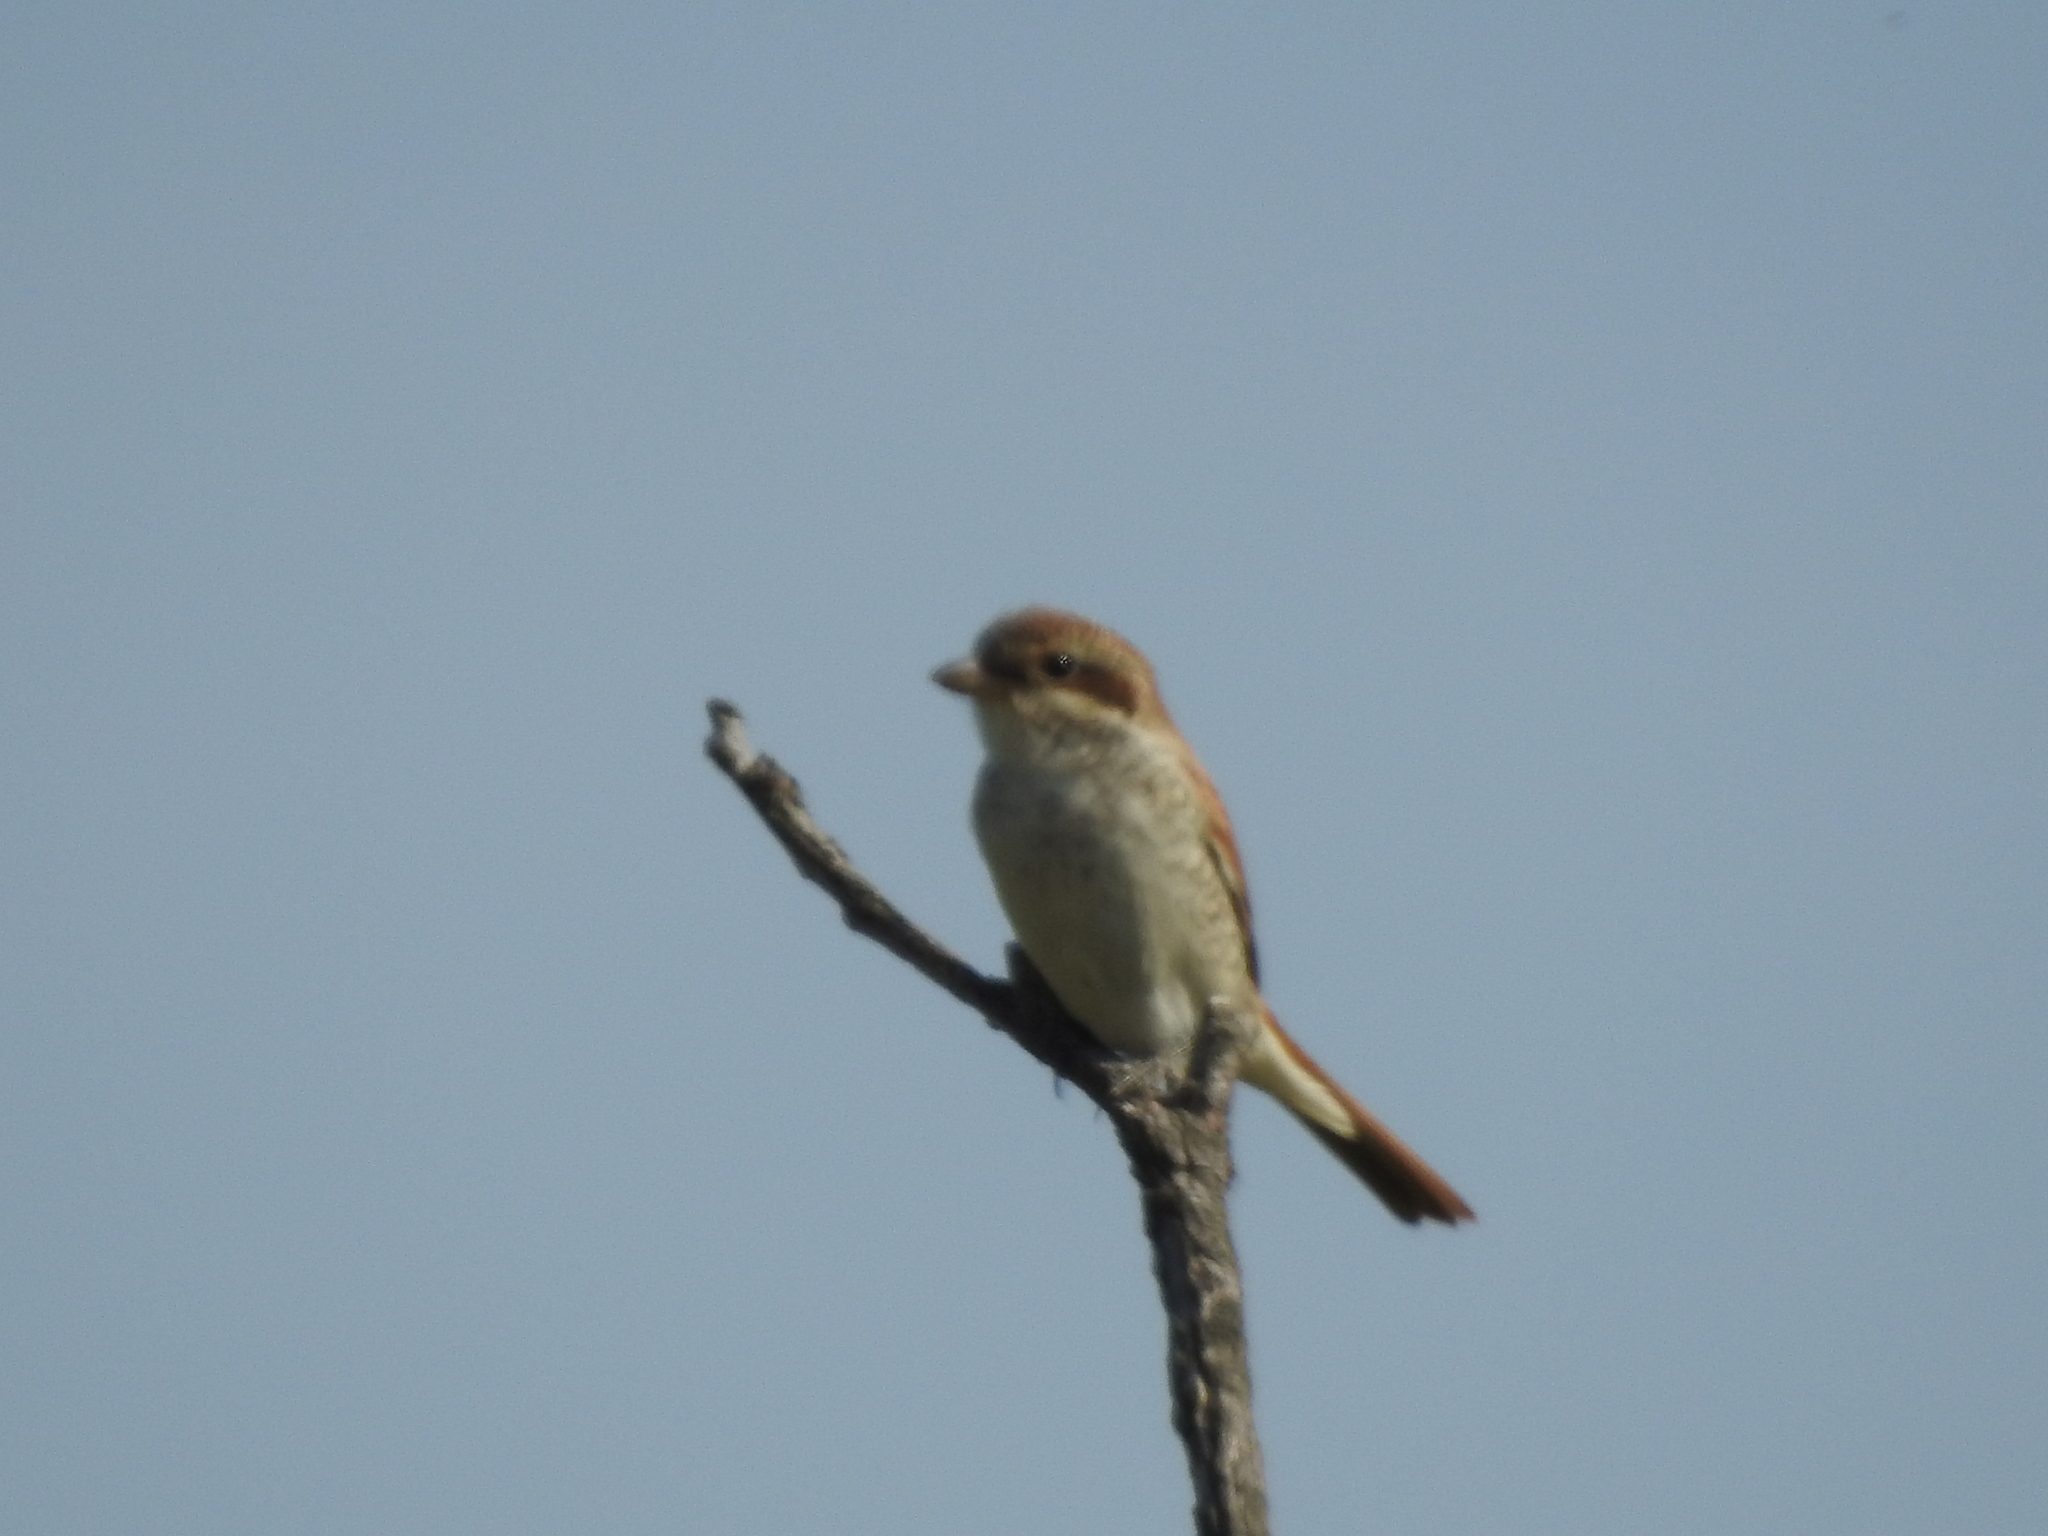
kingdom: Animalia
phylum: Chordata
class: Aves
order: Passeriformes
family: Laniidae
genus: Lanius
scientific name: Lanius collurio
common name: Red-backed shrike
